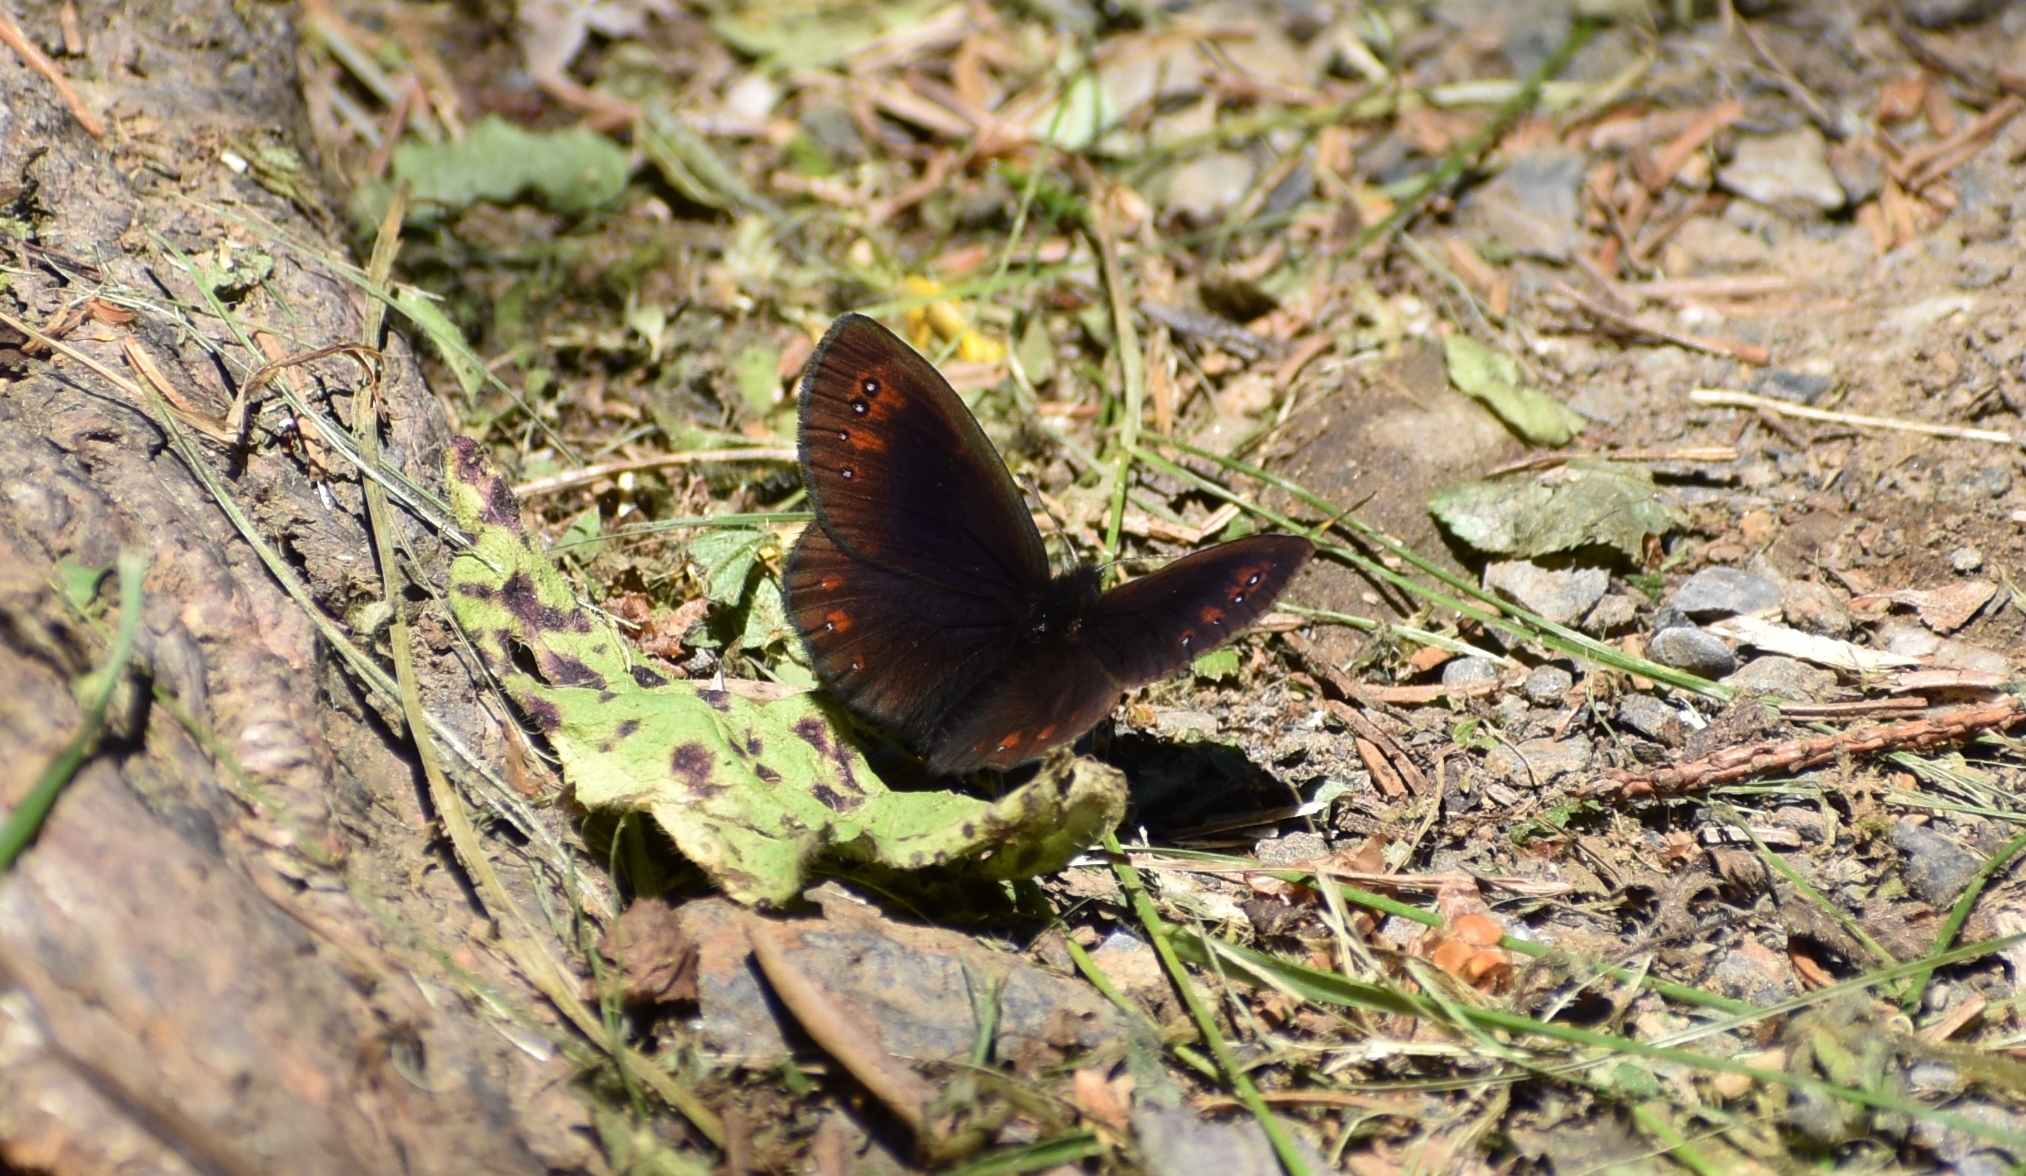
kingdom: Animalia
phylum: Arthropoda
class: Insecta
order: Lepidoptera
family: Nymphalidae
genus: Erebia
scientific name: Erebia meolans
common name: Piedmont ringlet
